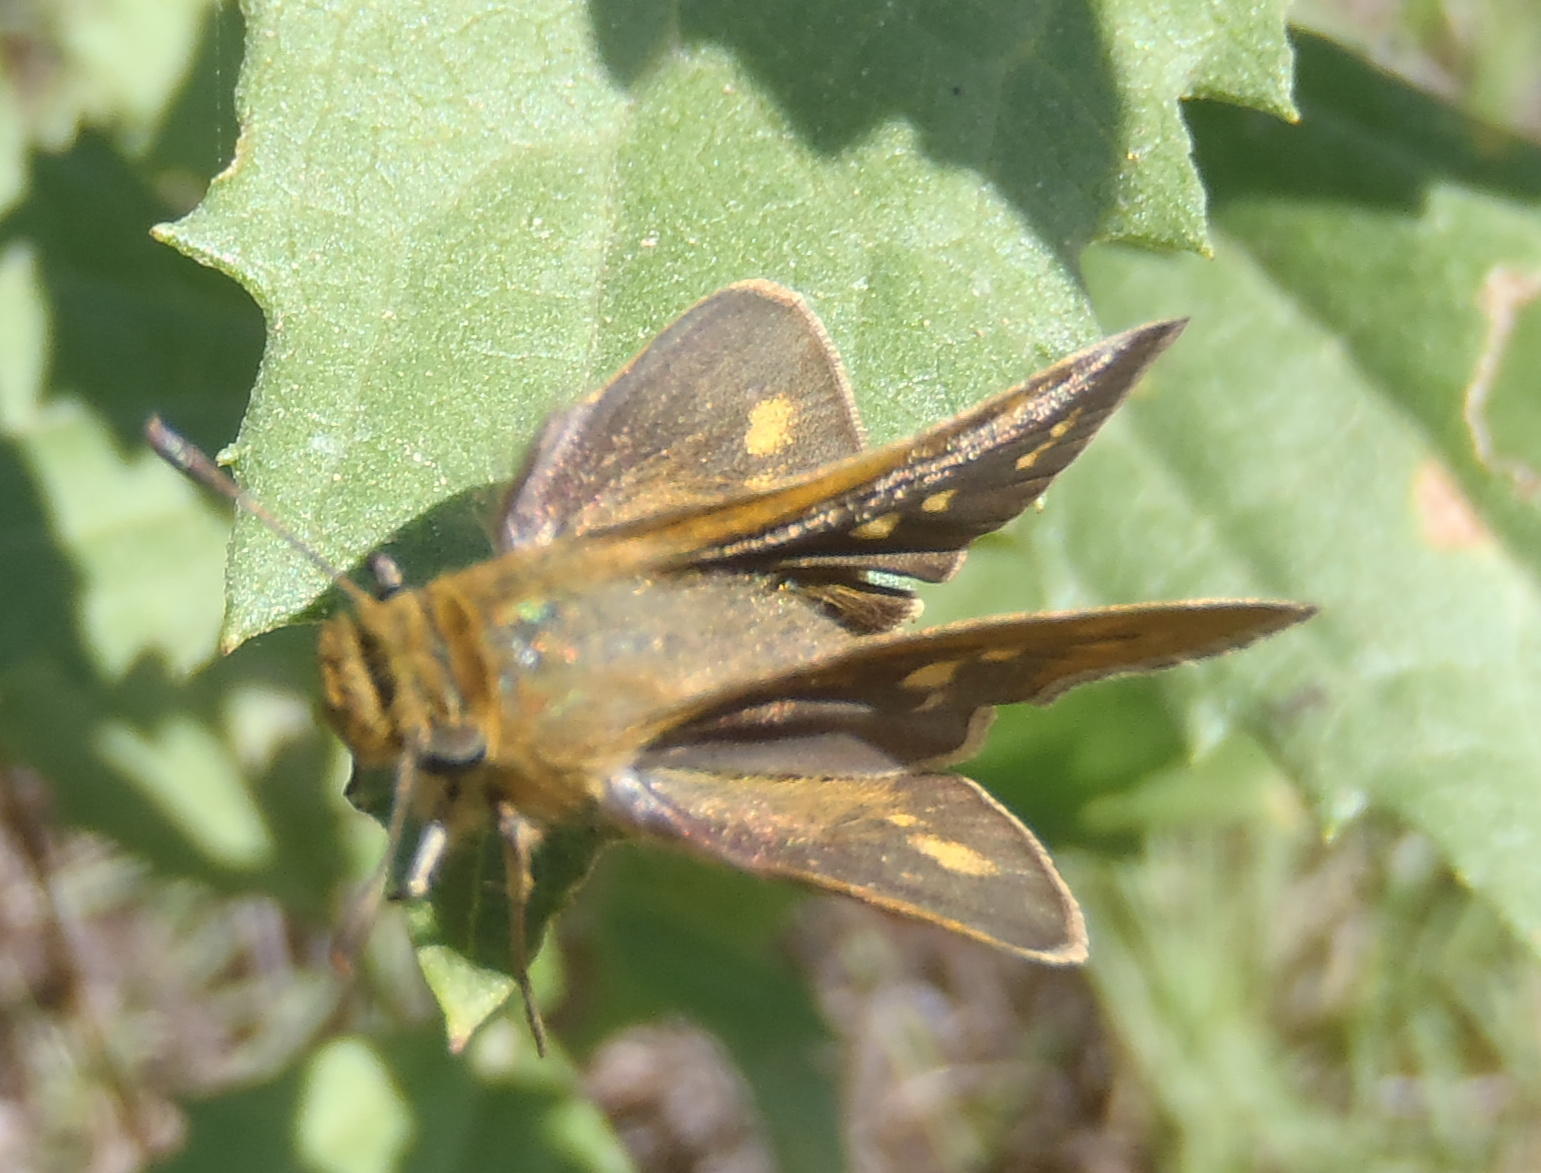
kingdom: Animalia
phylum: Arthropoda
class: Insecta
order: Lepidoptera
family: Hesperiidae
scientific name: Hesperiidae
